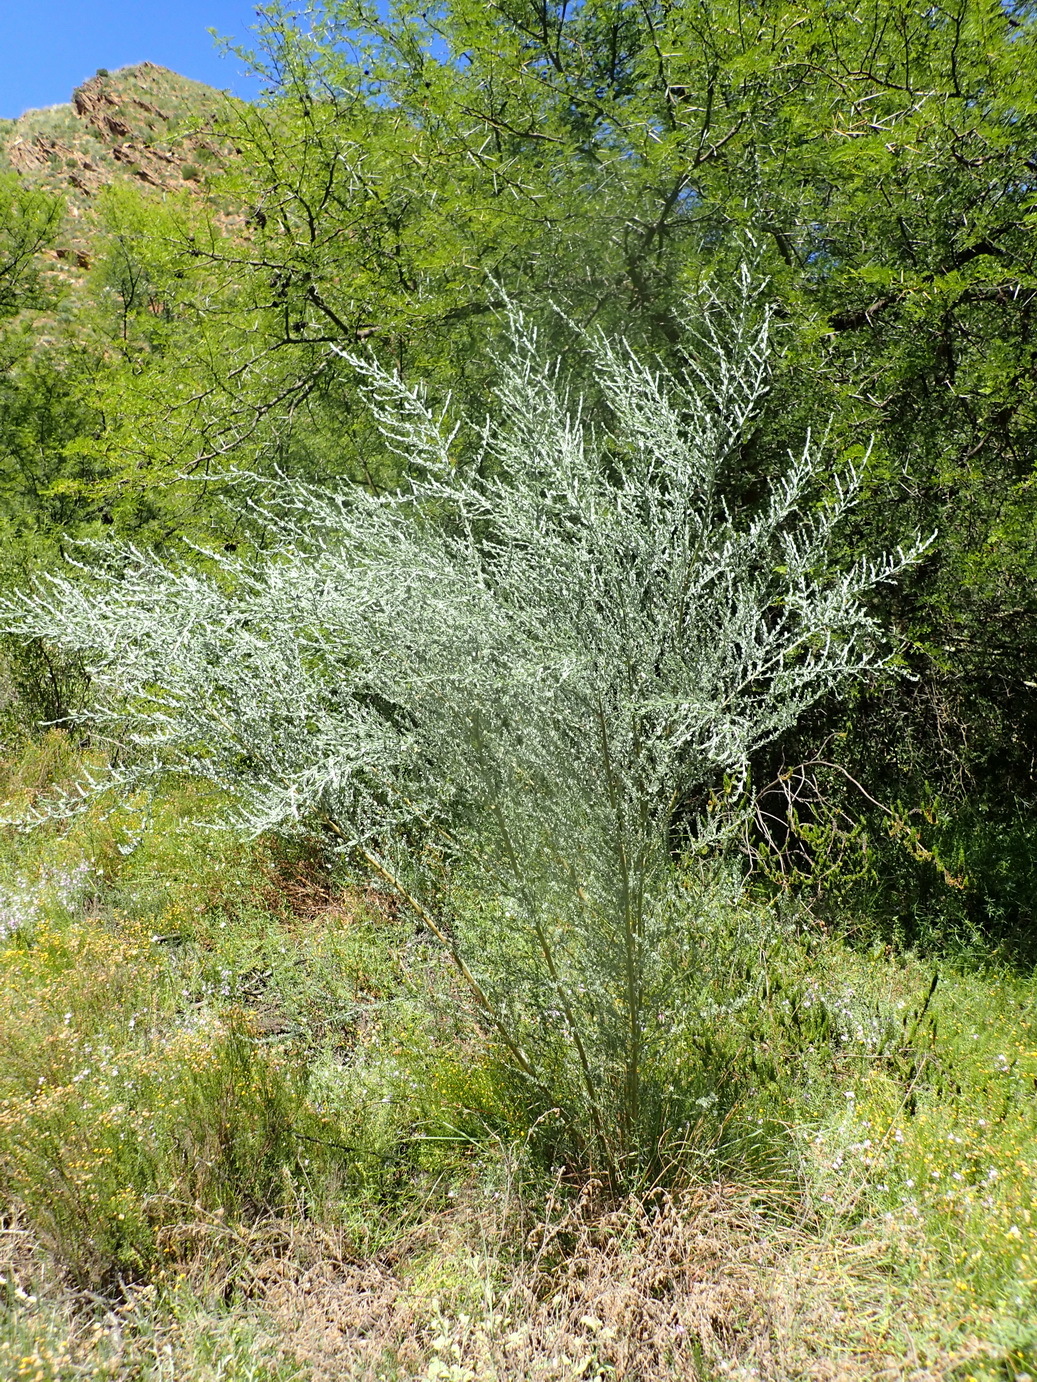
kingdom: Plantae
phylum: Tracheophyta
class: Magnoliopsida
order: Fabales
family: Fabaceae
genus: Amphithalea
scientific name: Amphithalea
